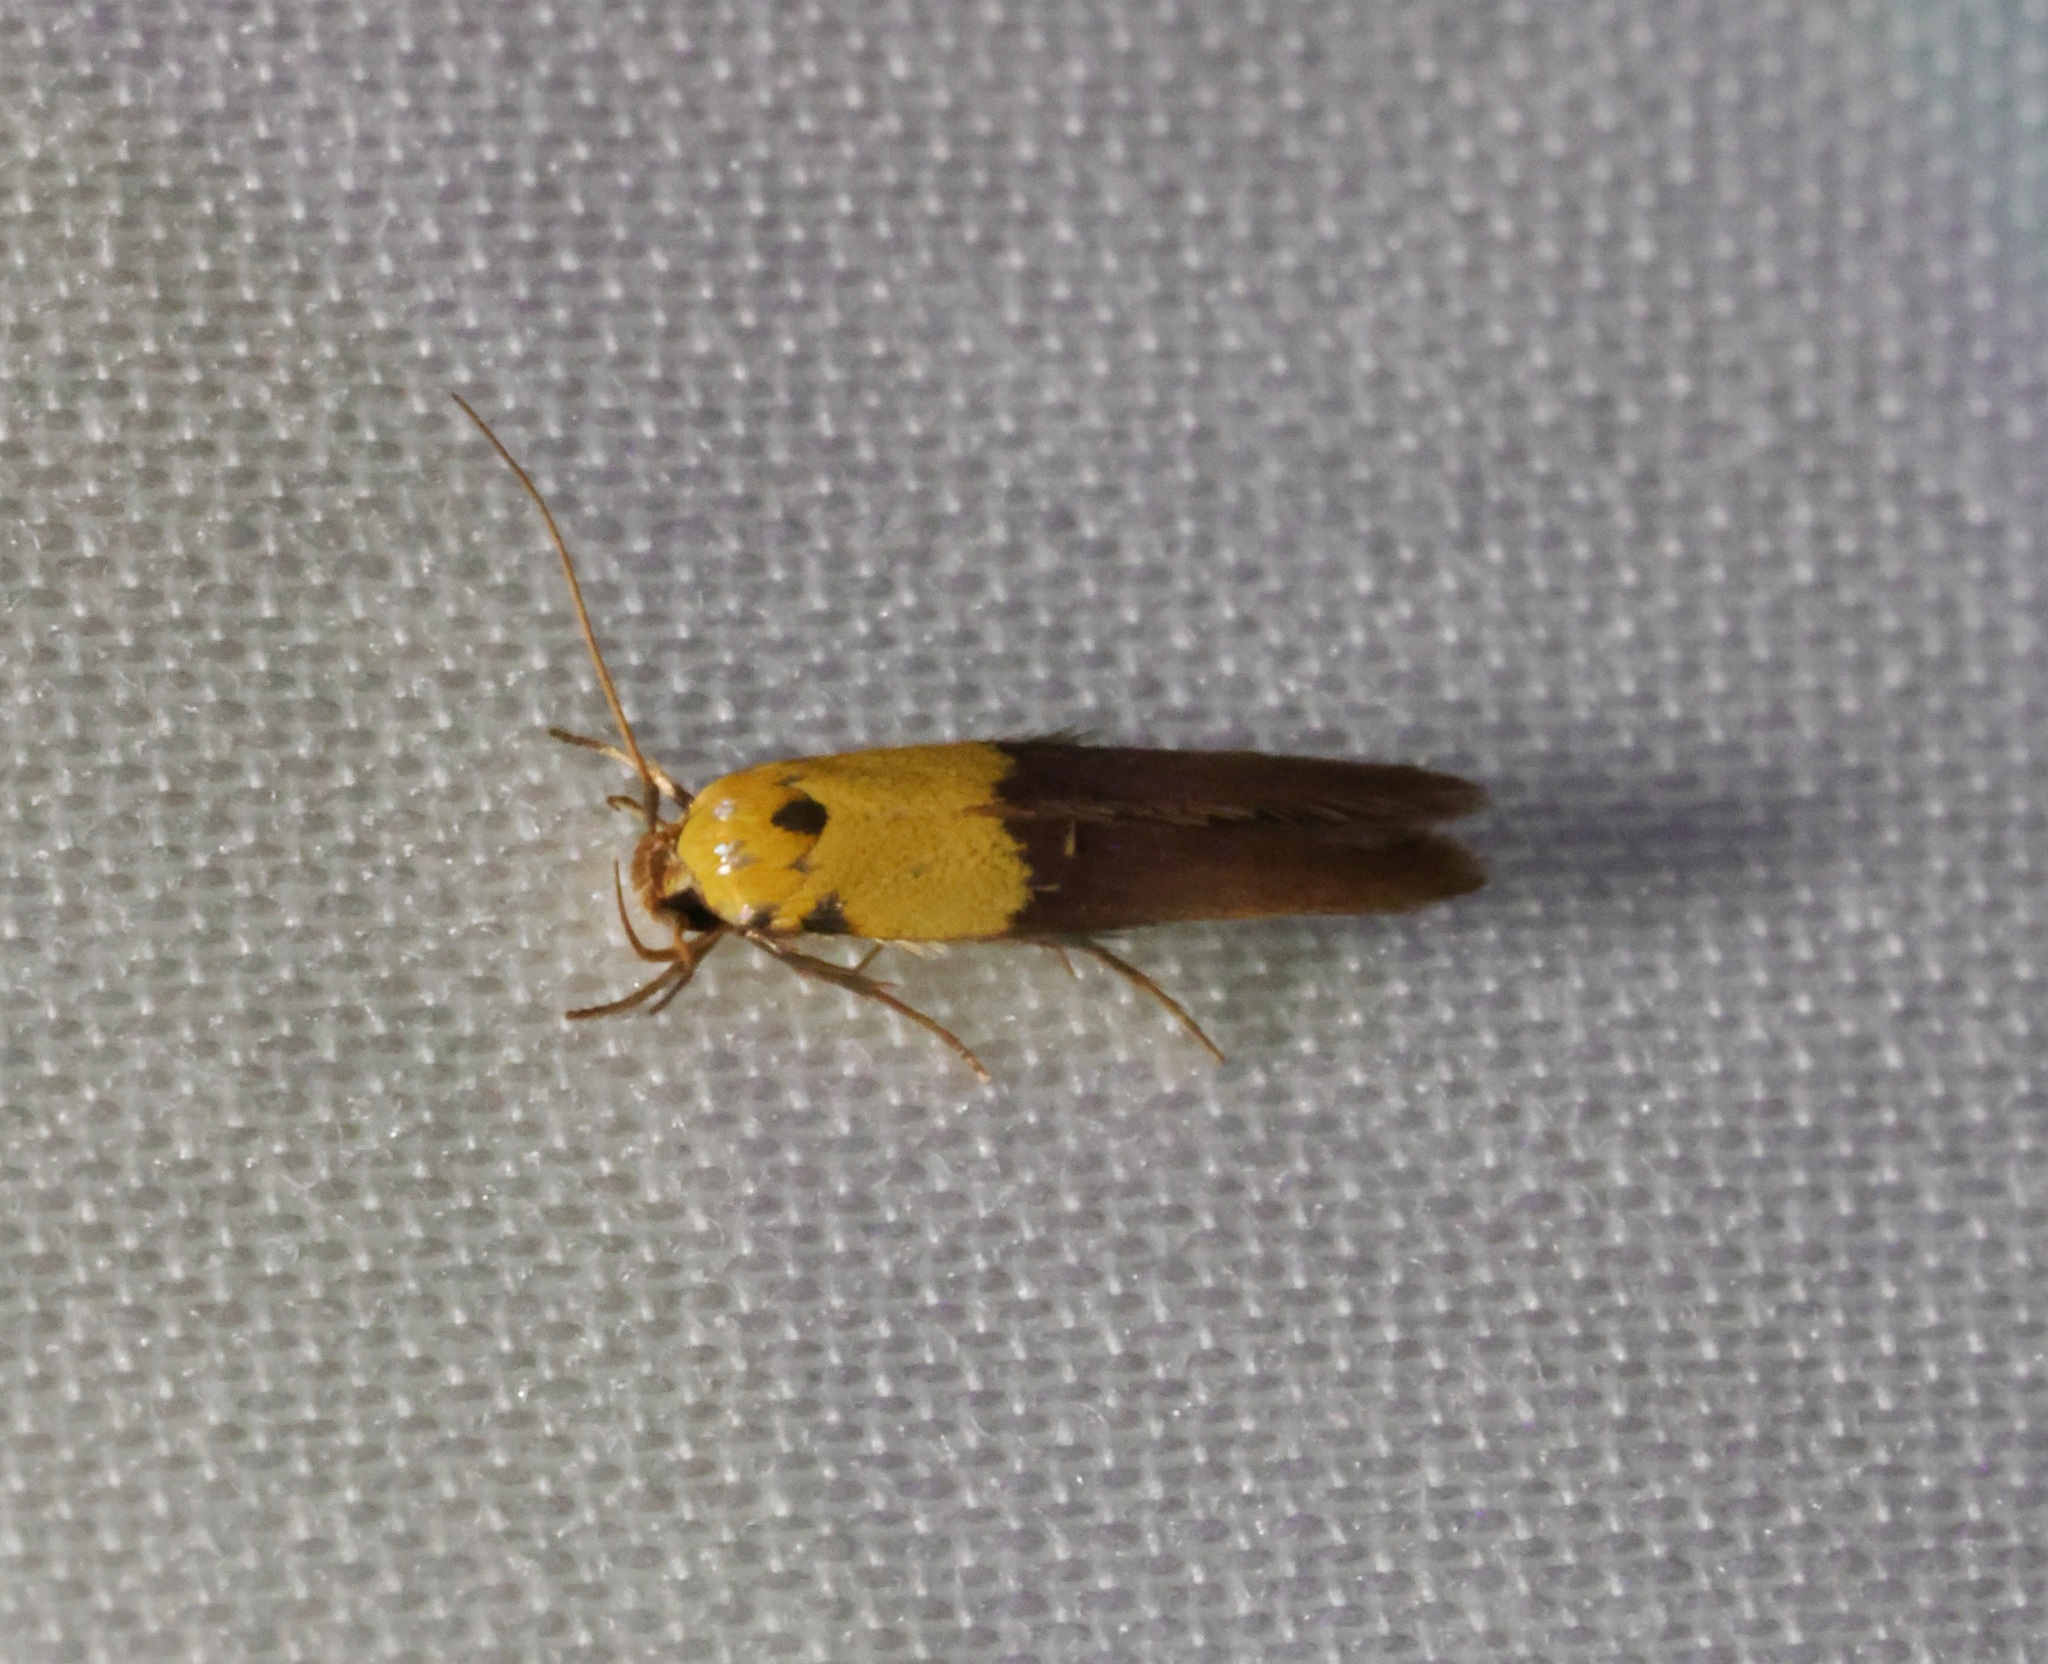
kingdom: Animalia
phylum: Arthropoda
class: Insecta
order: Lepidoptera
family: Stathmopodidae
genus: Stathmopoda
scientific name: Stathmopoda auriferella
